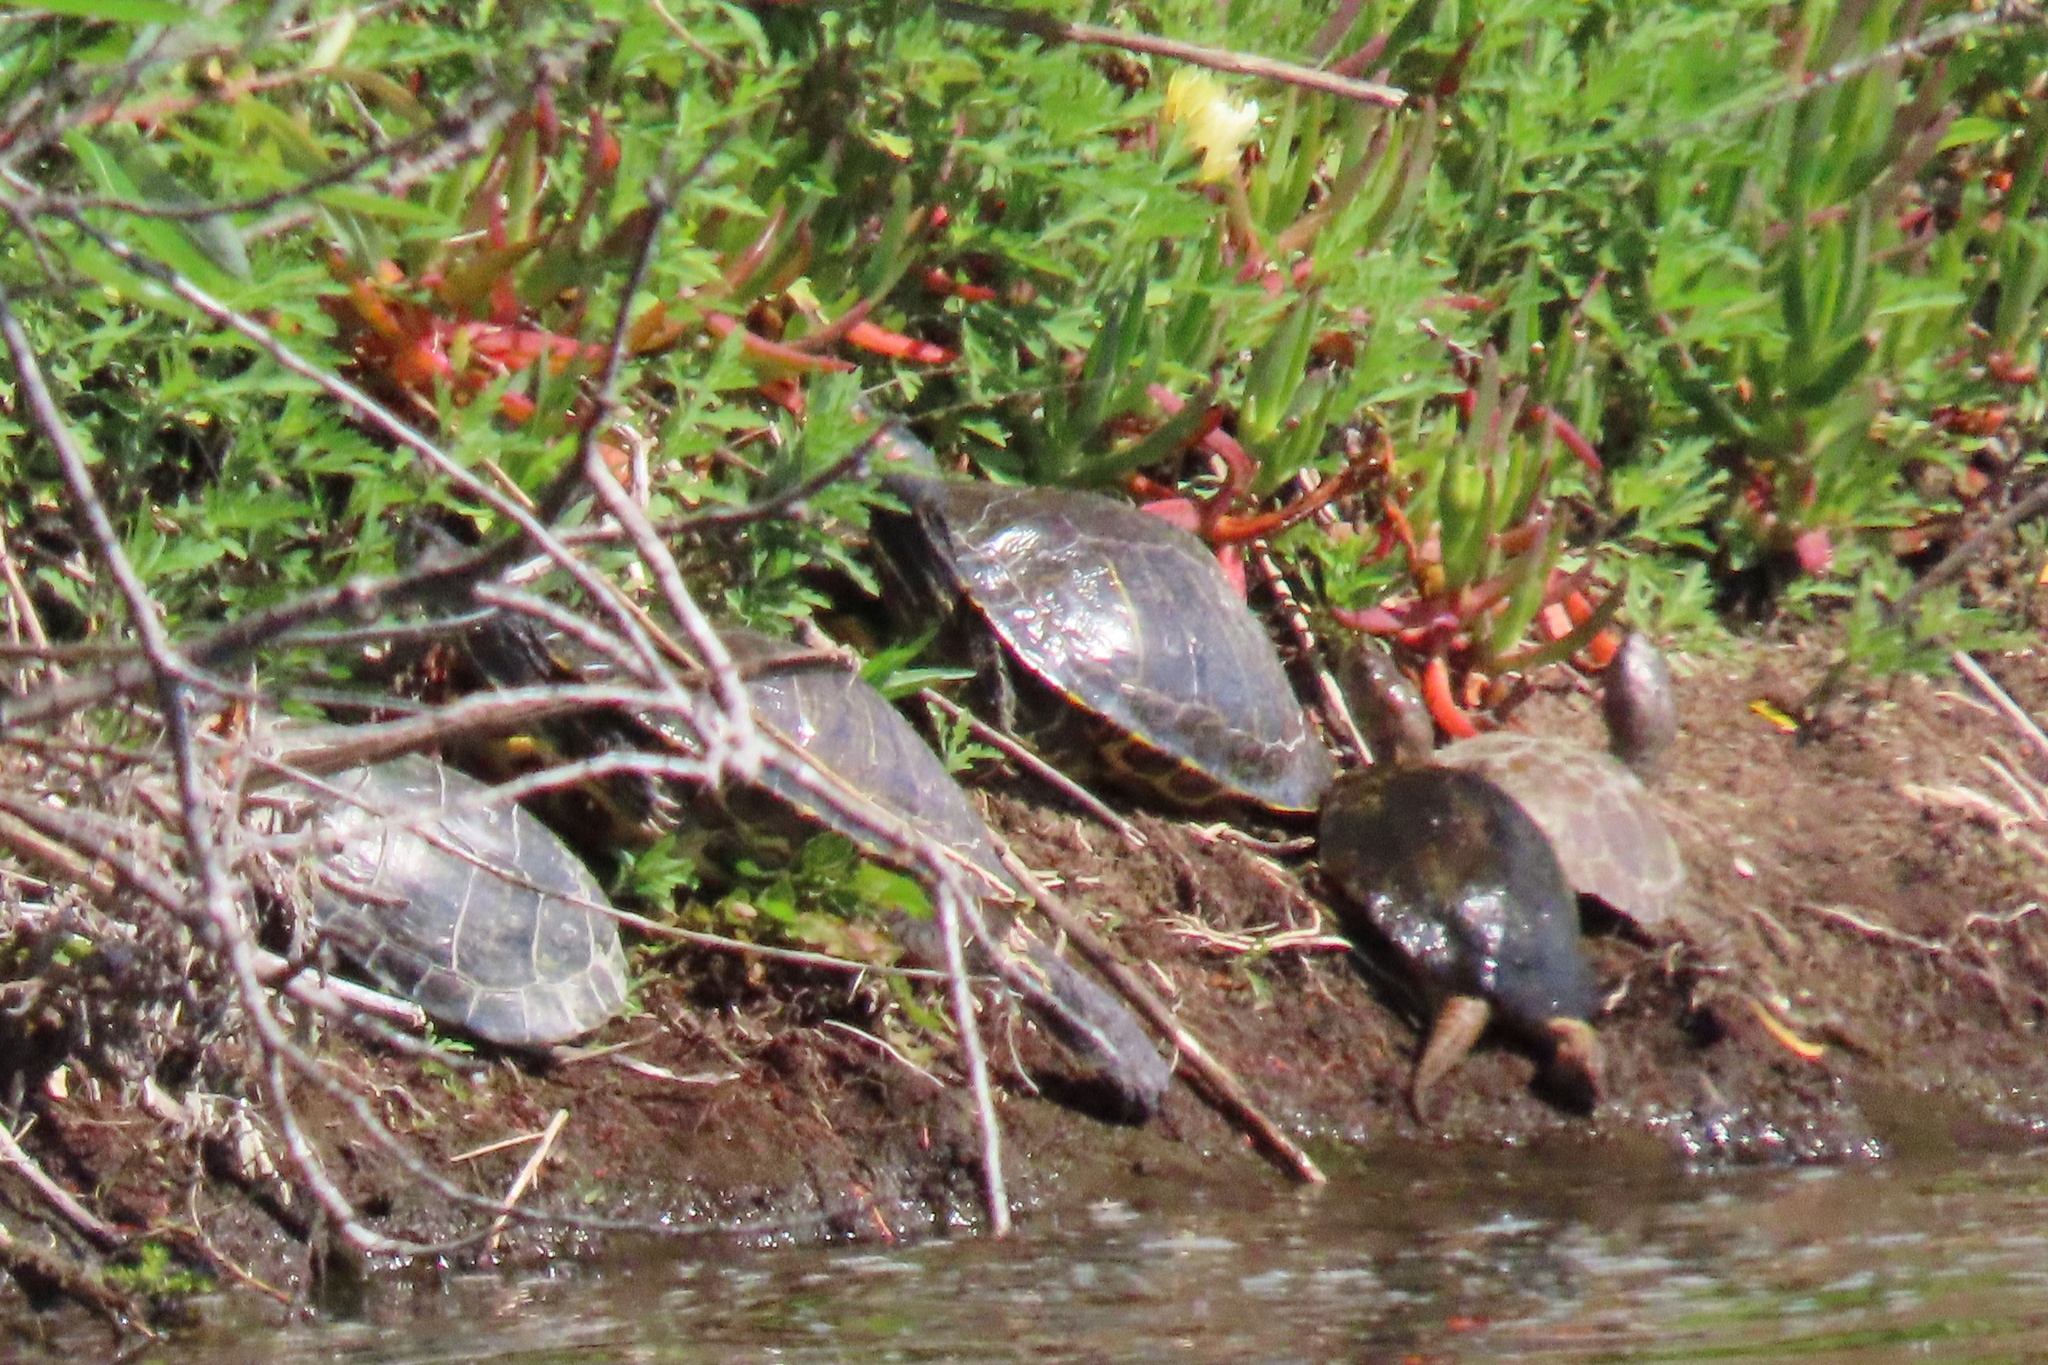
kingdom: Animalia
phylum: Chordata
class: Testudines
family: Emydidae
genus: Actinemys
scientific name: Actinemys marmorata
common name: Western pond turtle
